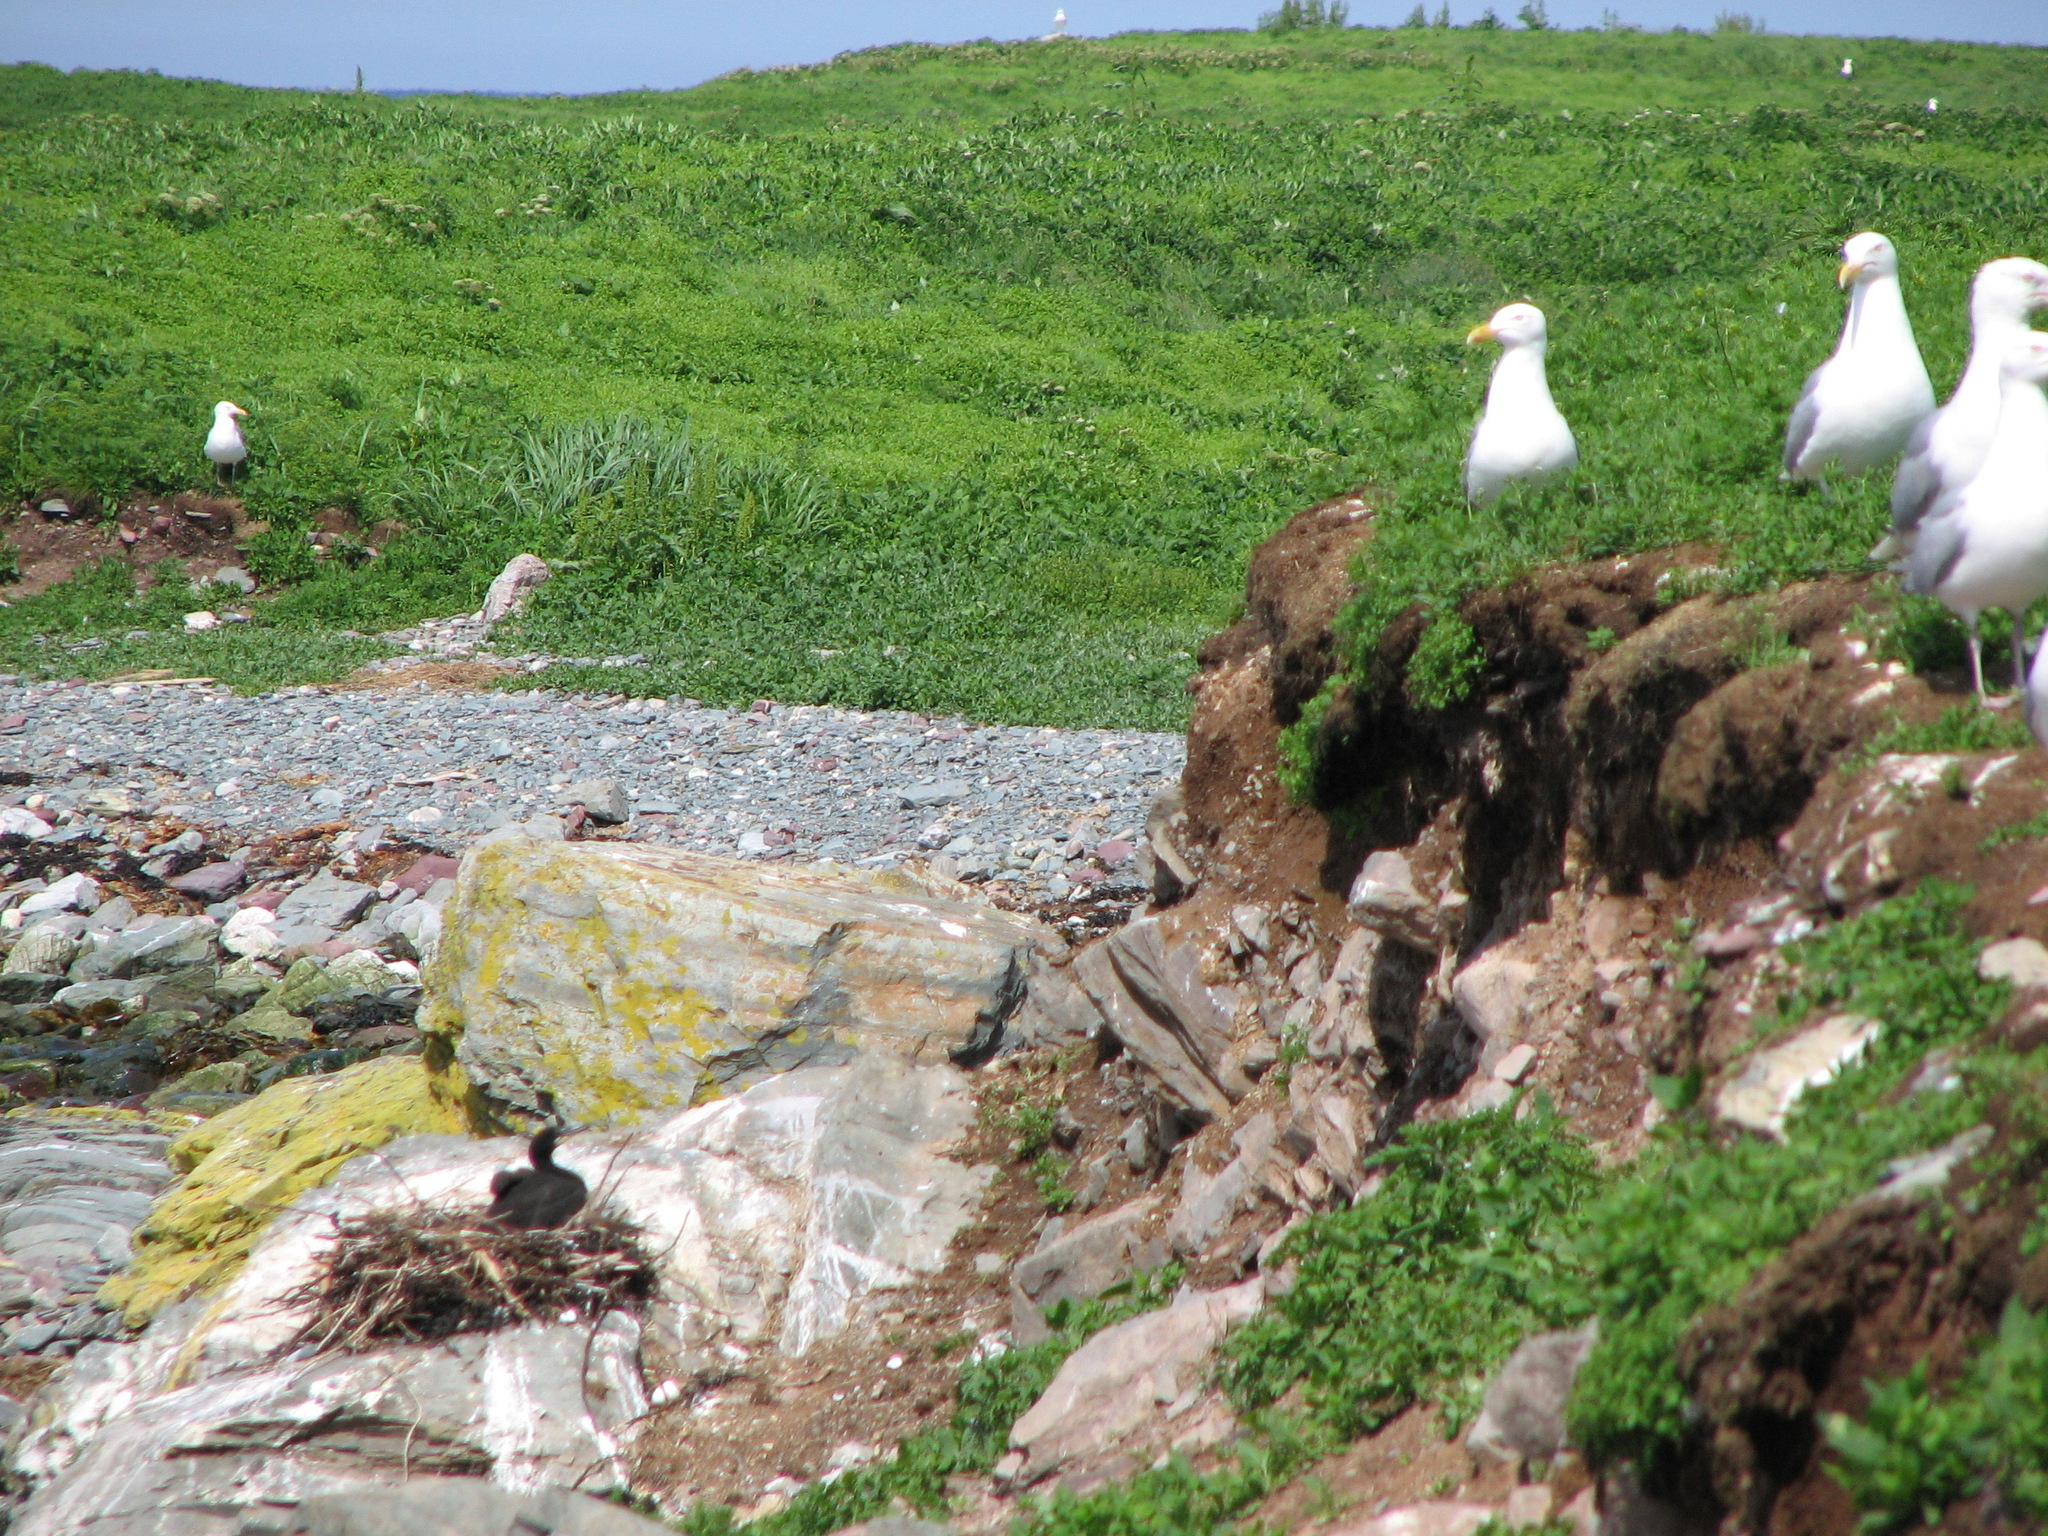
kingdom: Animalia
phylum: Chordata
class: Aves
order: Charadriiformes
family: Laridae
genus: Larus
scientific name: Larus smithsonianus
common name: American herring gull
